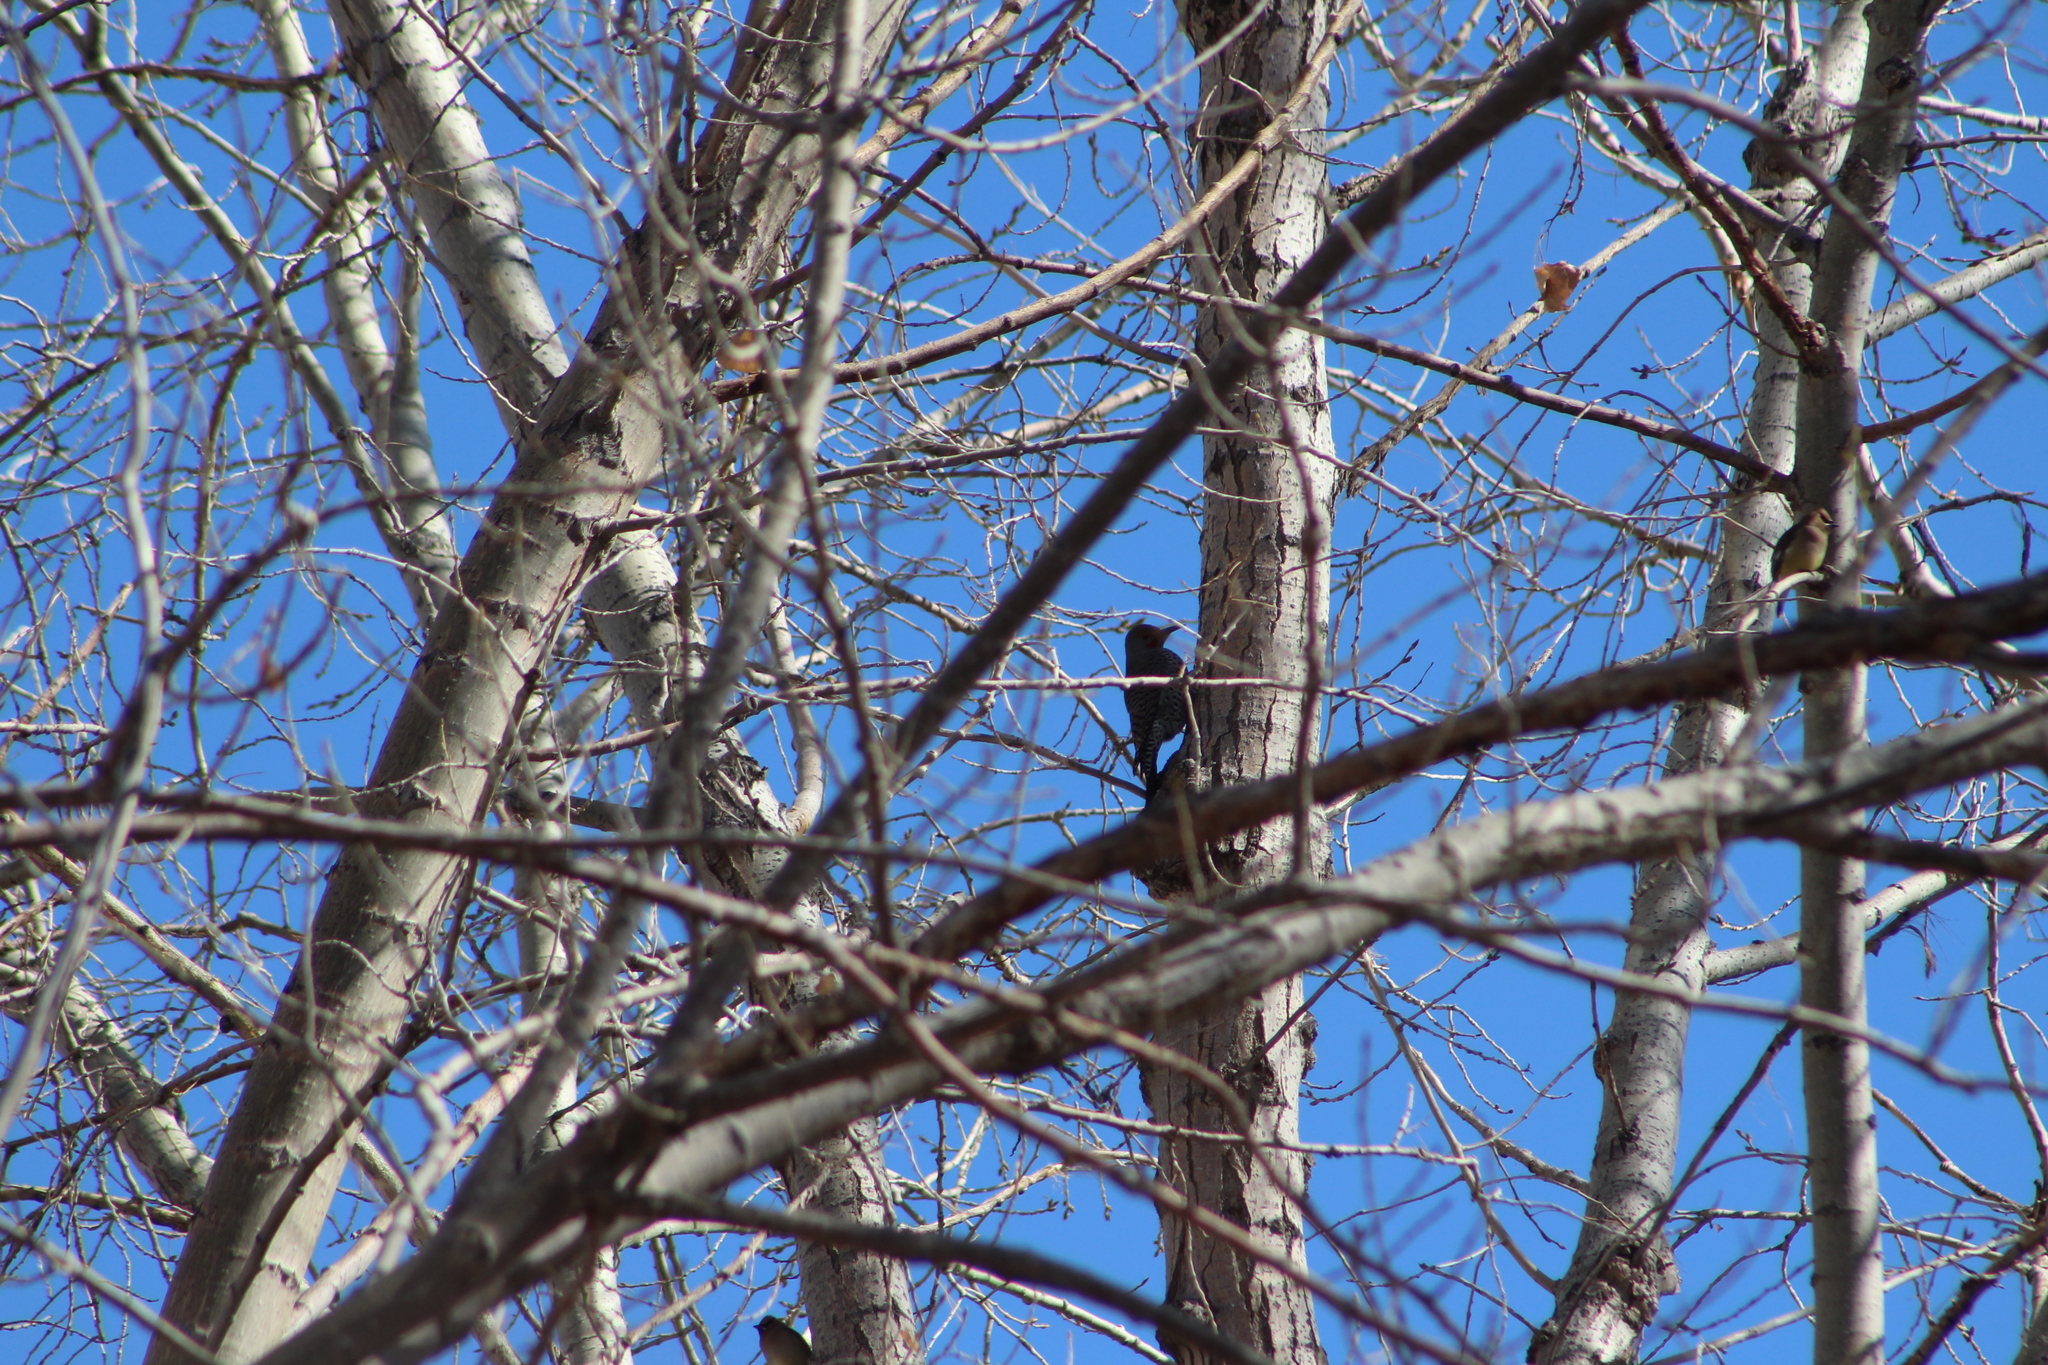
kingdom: Animalia
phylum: Chordata
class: Aves
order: Piciformes
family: Picidae
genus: Colaptes
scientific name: Colaptes auratus
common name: Northern flicker
